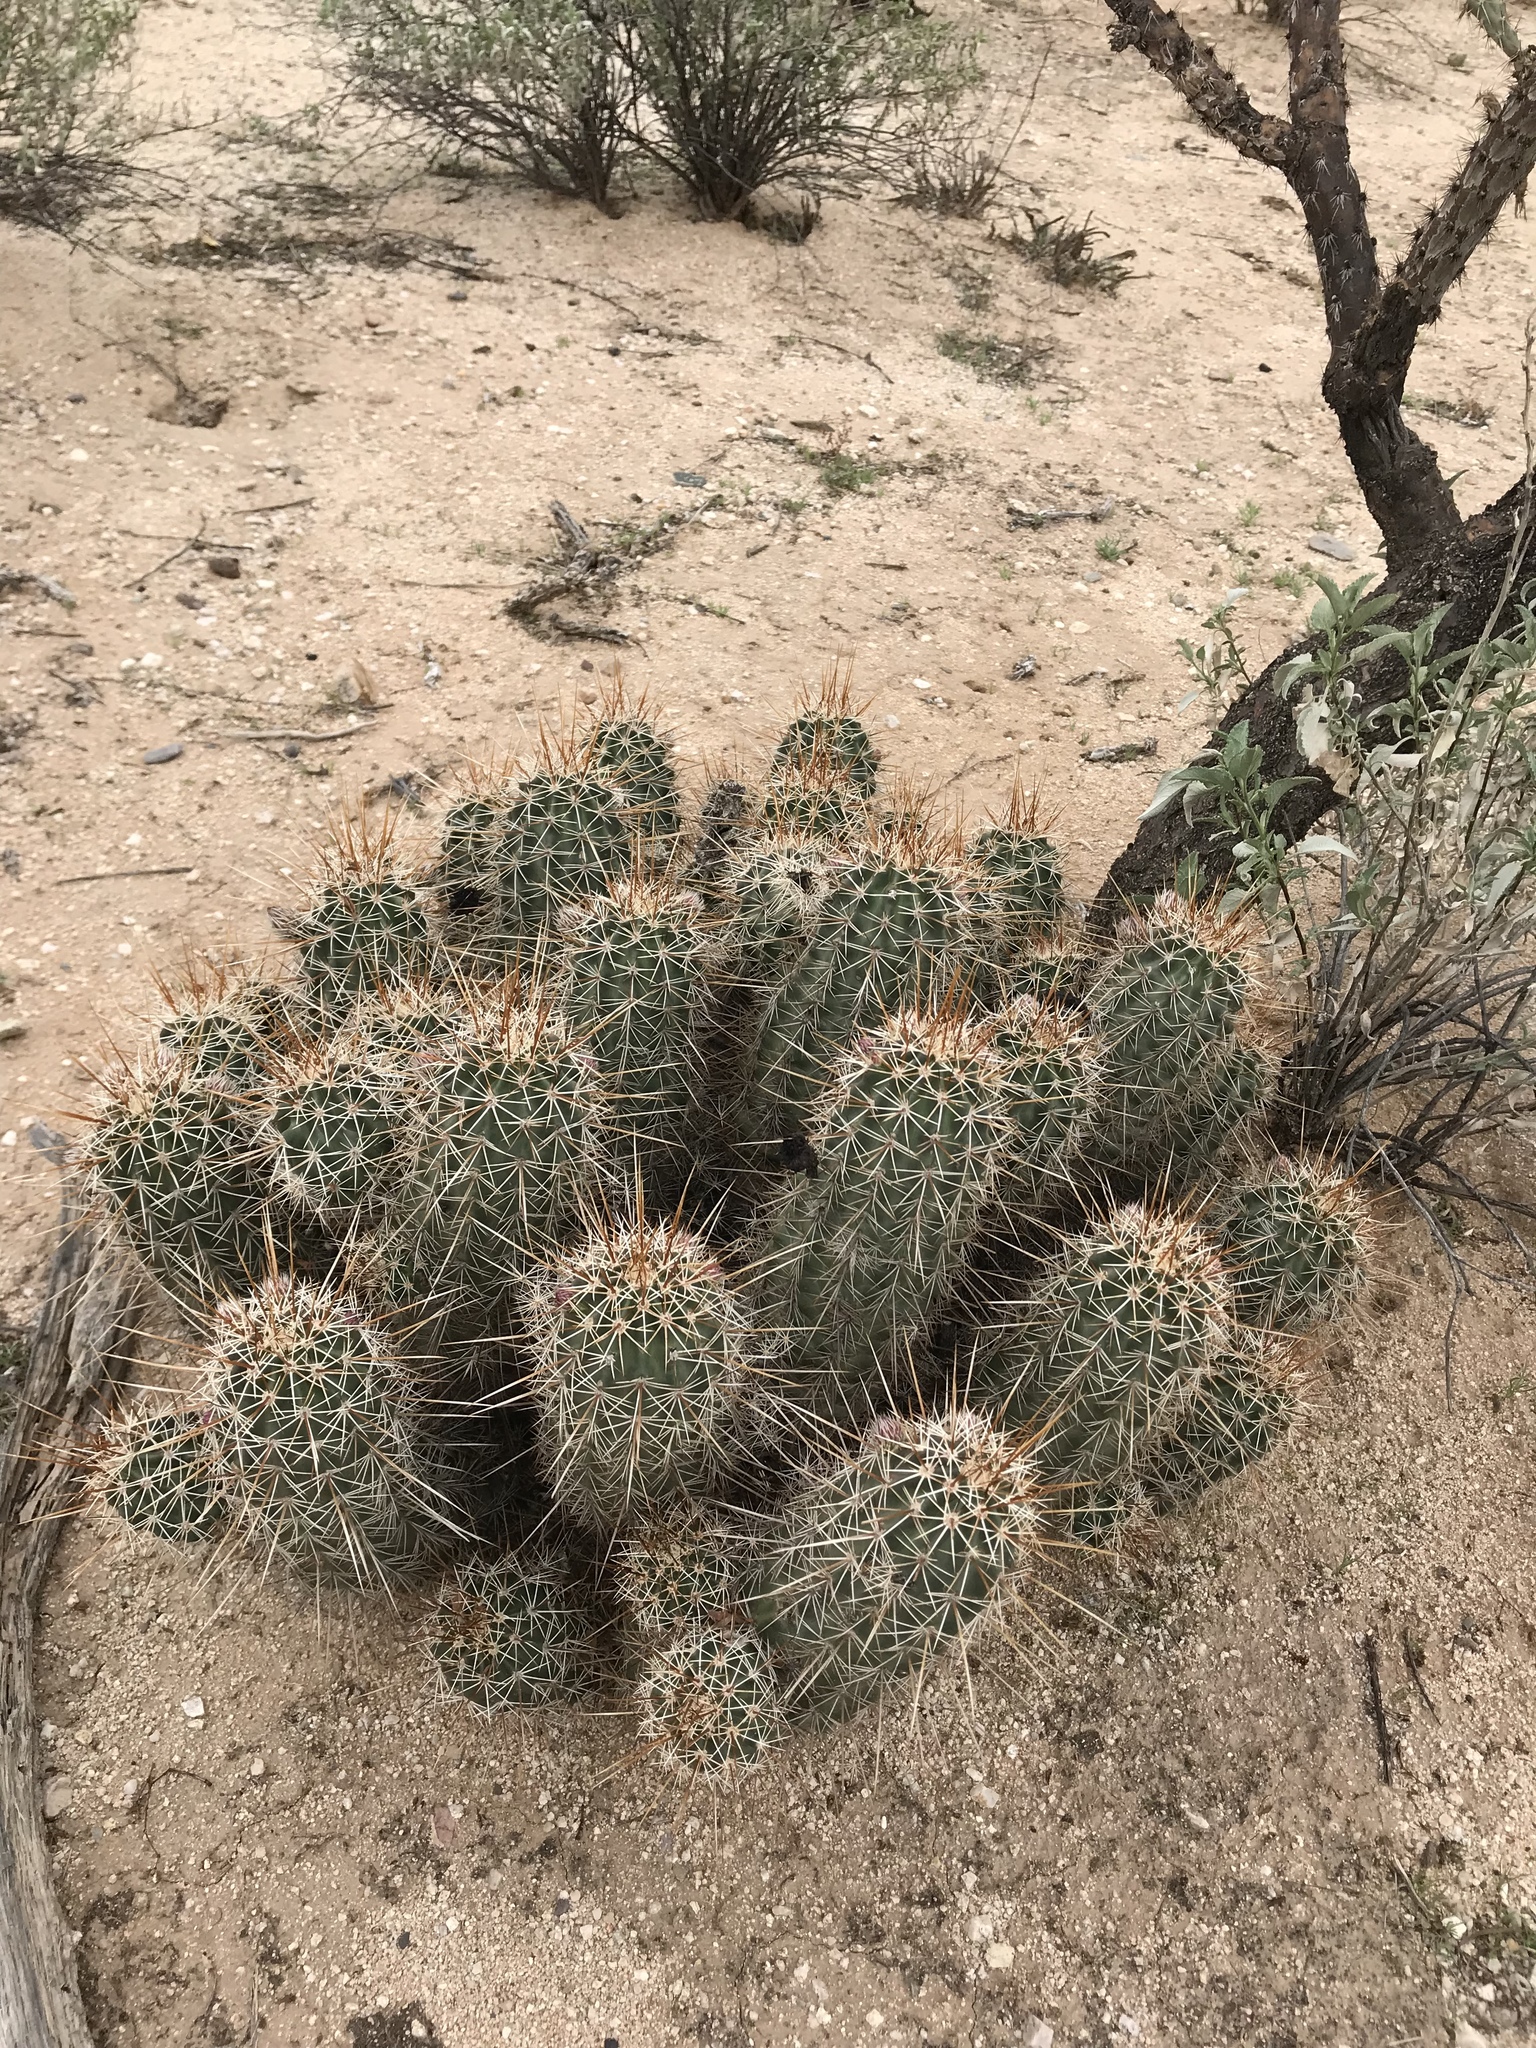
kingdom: Plantae
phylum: Tracheophyta
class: Magnoliopsida
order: Caryophyllales
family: Cactaceae
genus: Echinocereus
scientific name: Echinocereus fasciculatus
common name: Bundle hedgehog
